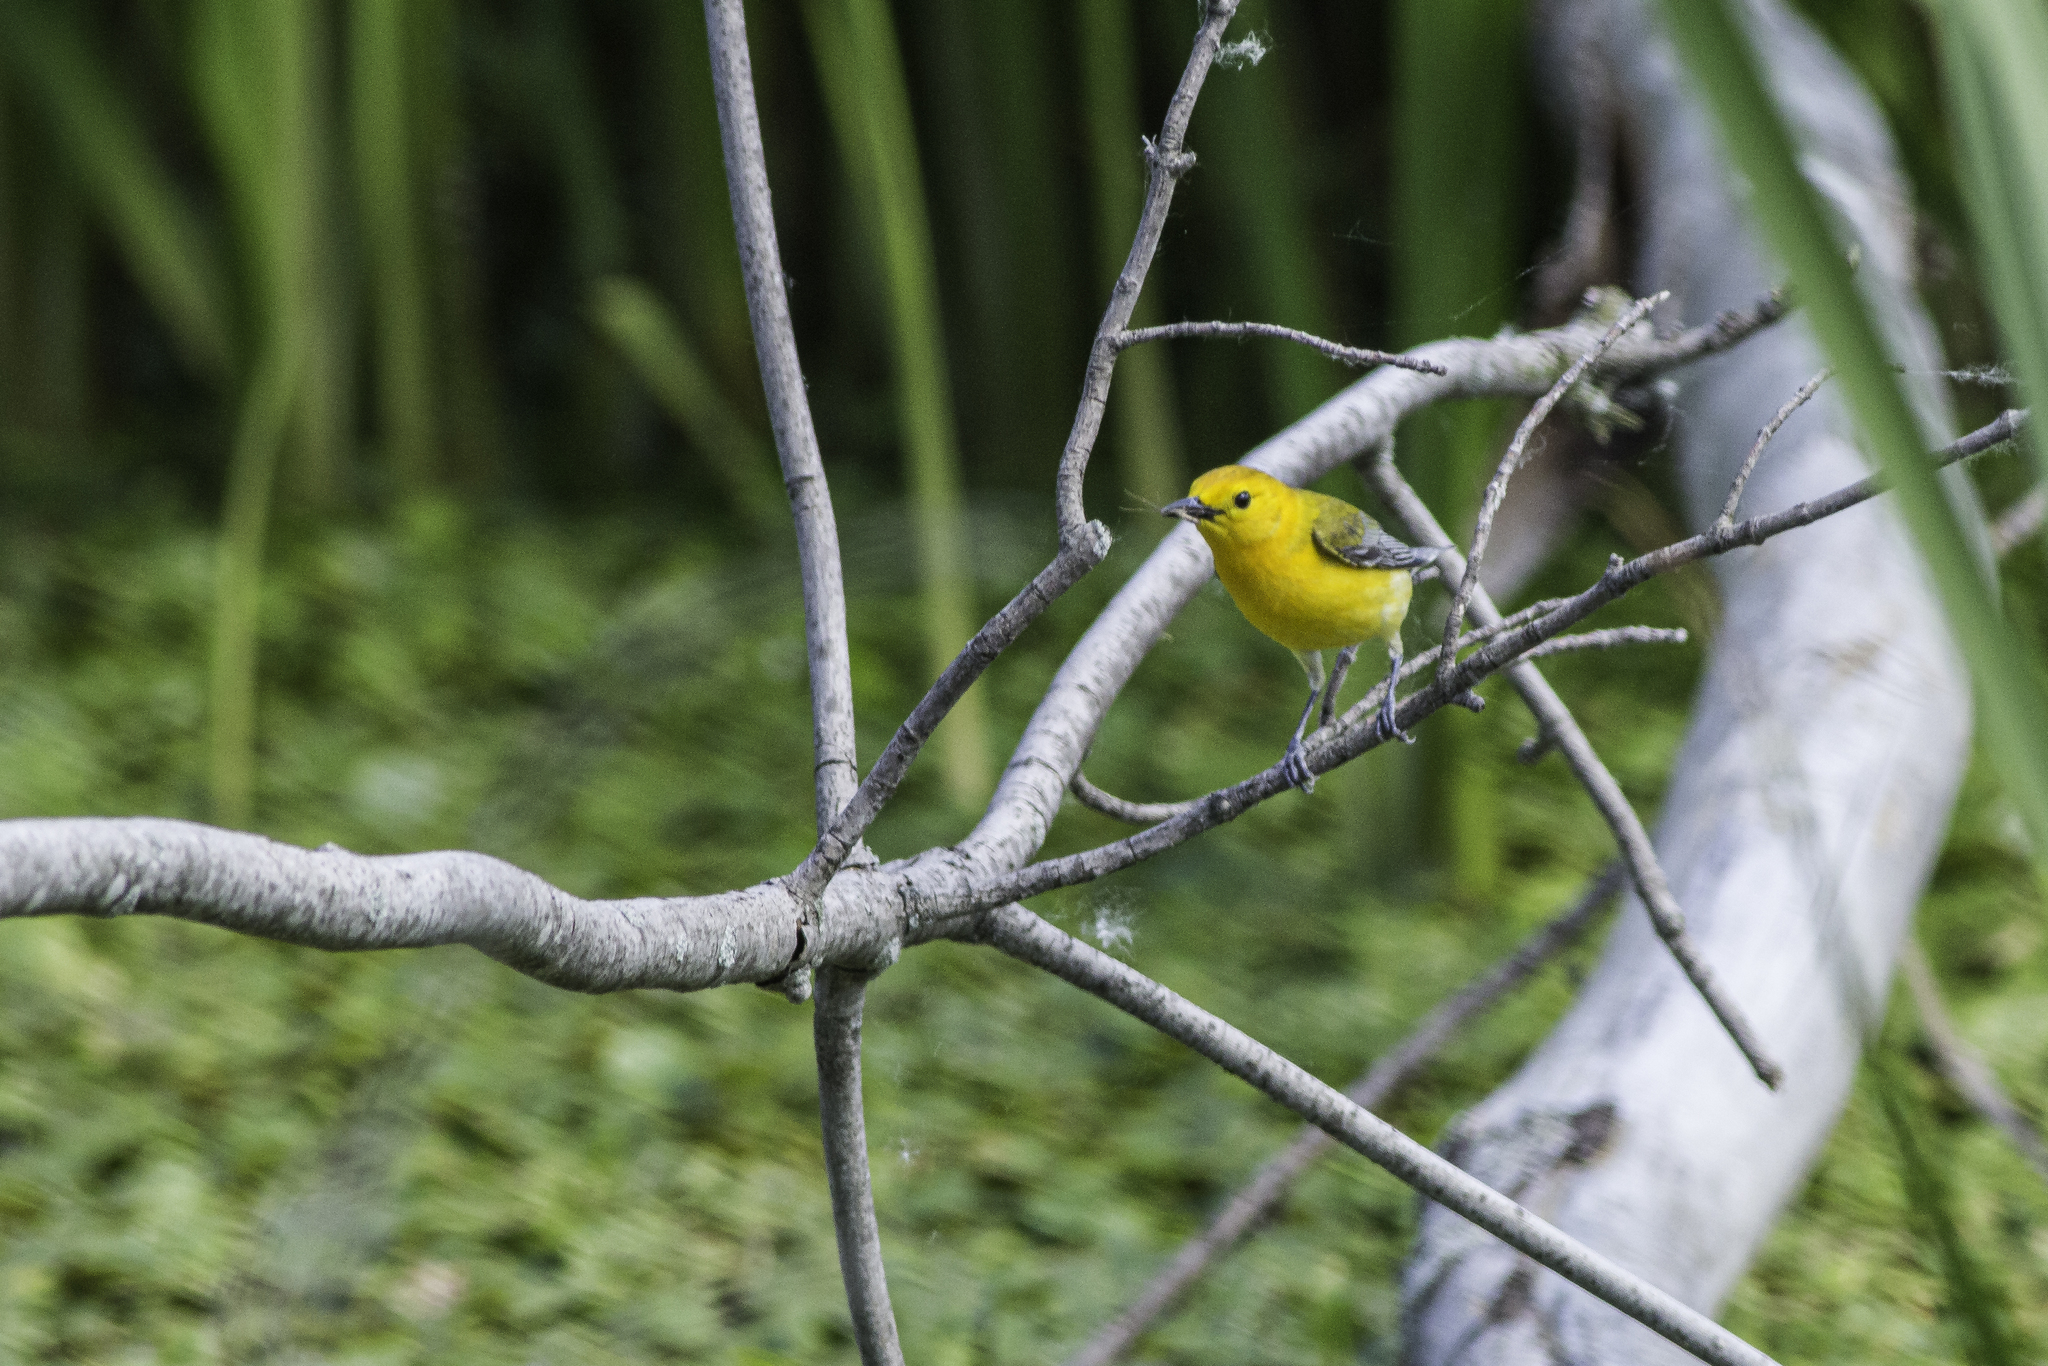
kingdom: Animalia
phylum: Chordata
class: Aves
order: Passeriformes
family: Parulidae
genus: Protonotaria
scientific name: Protonotaria citrea
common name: Prothonotary warbler
